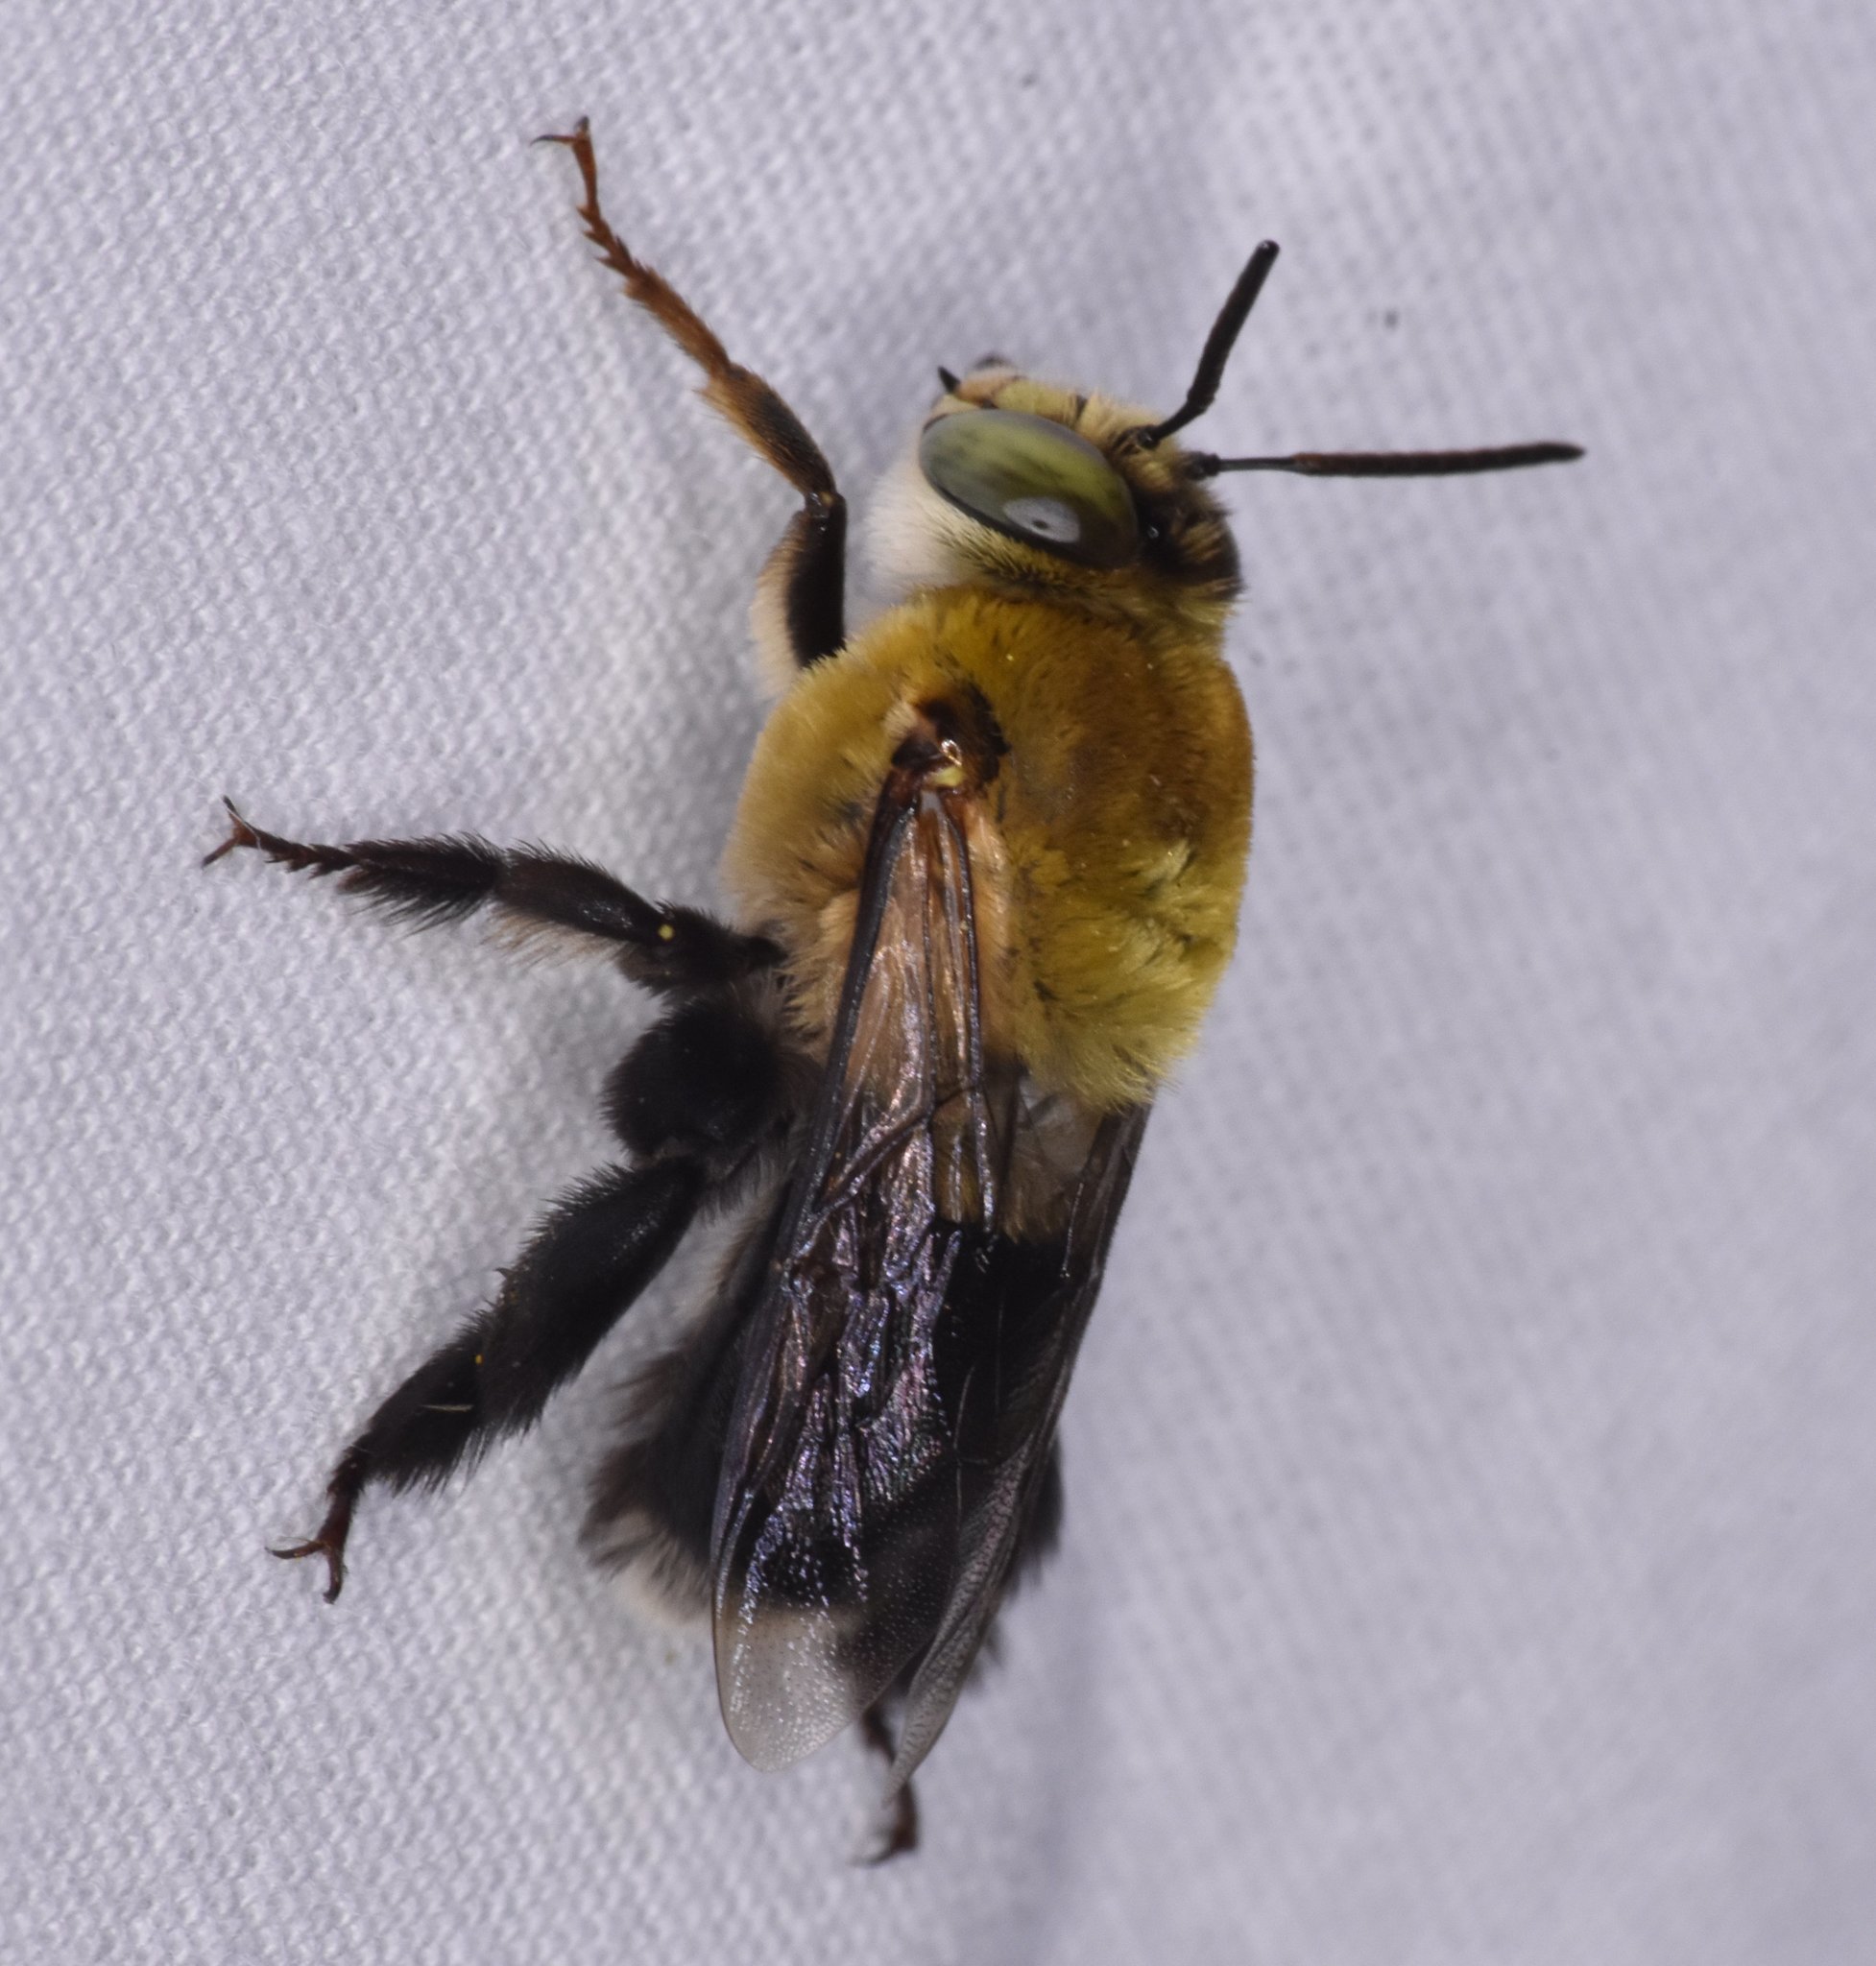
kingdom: Animalia
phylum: Arthropoda
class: Insecta
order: Hymenoptera
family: Apidae
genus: Centris
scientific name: Centris nitida
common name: Oil-collecting bee
